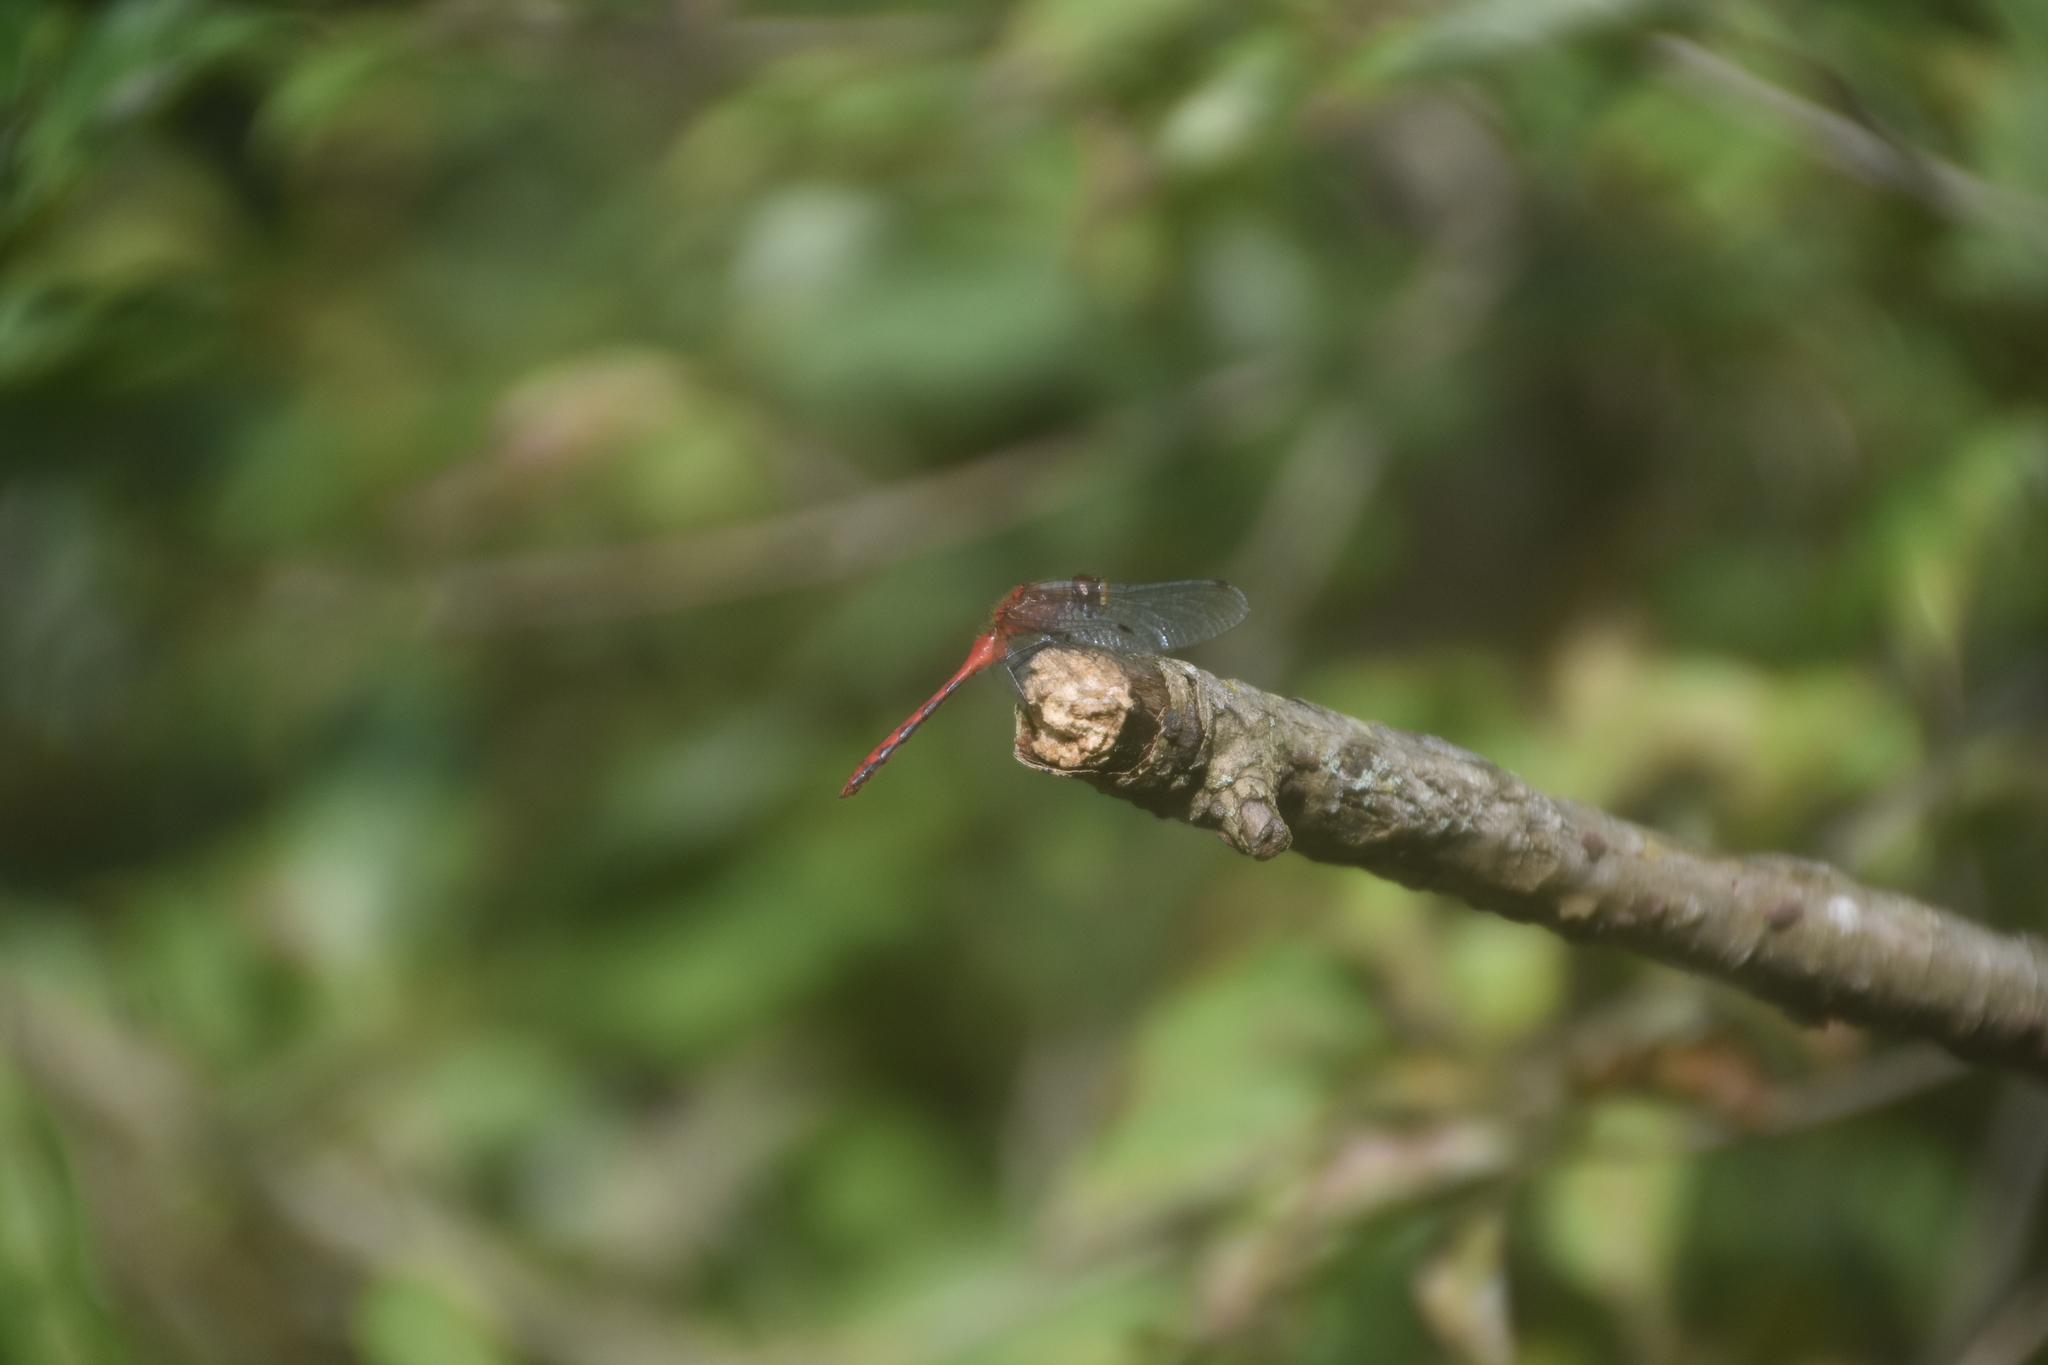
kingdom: Animalia
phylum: Arthropoda
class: Insecta
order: Odonata
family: Libellulidae
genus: Sympetrum
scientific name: Sympetrum rubicundulum
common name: Ruby meadowhawk
